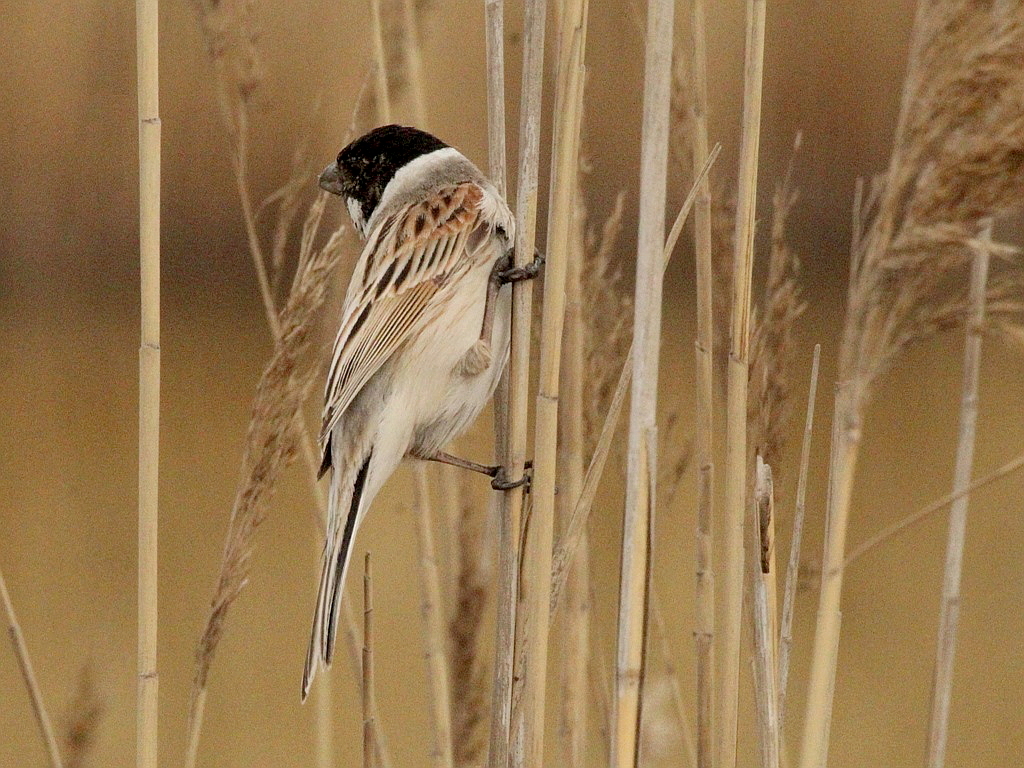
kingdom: Animalia
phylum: Chordata
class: Aves
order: Passeriformes
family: Emberizidae
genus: Emberiza
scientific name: Emberiza schoeniclus
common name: Reed bunting
